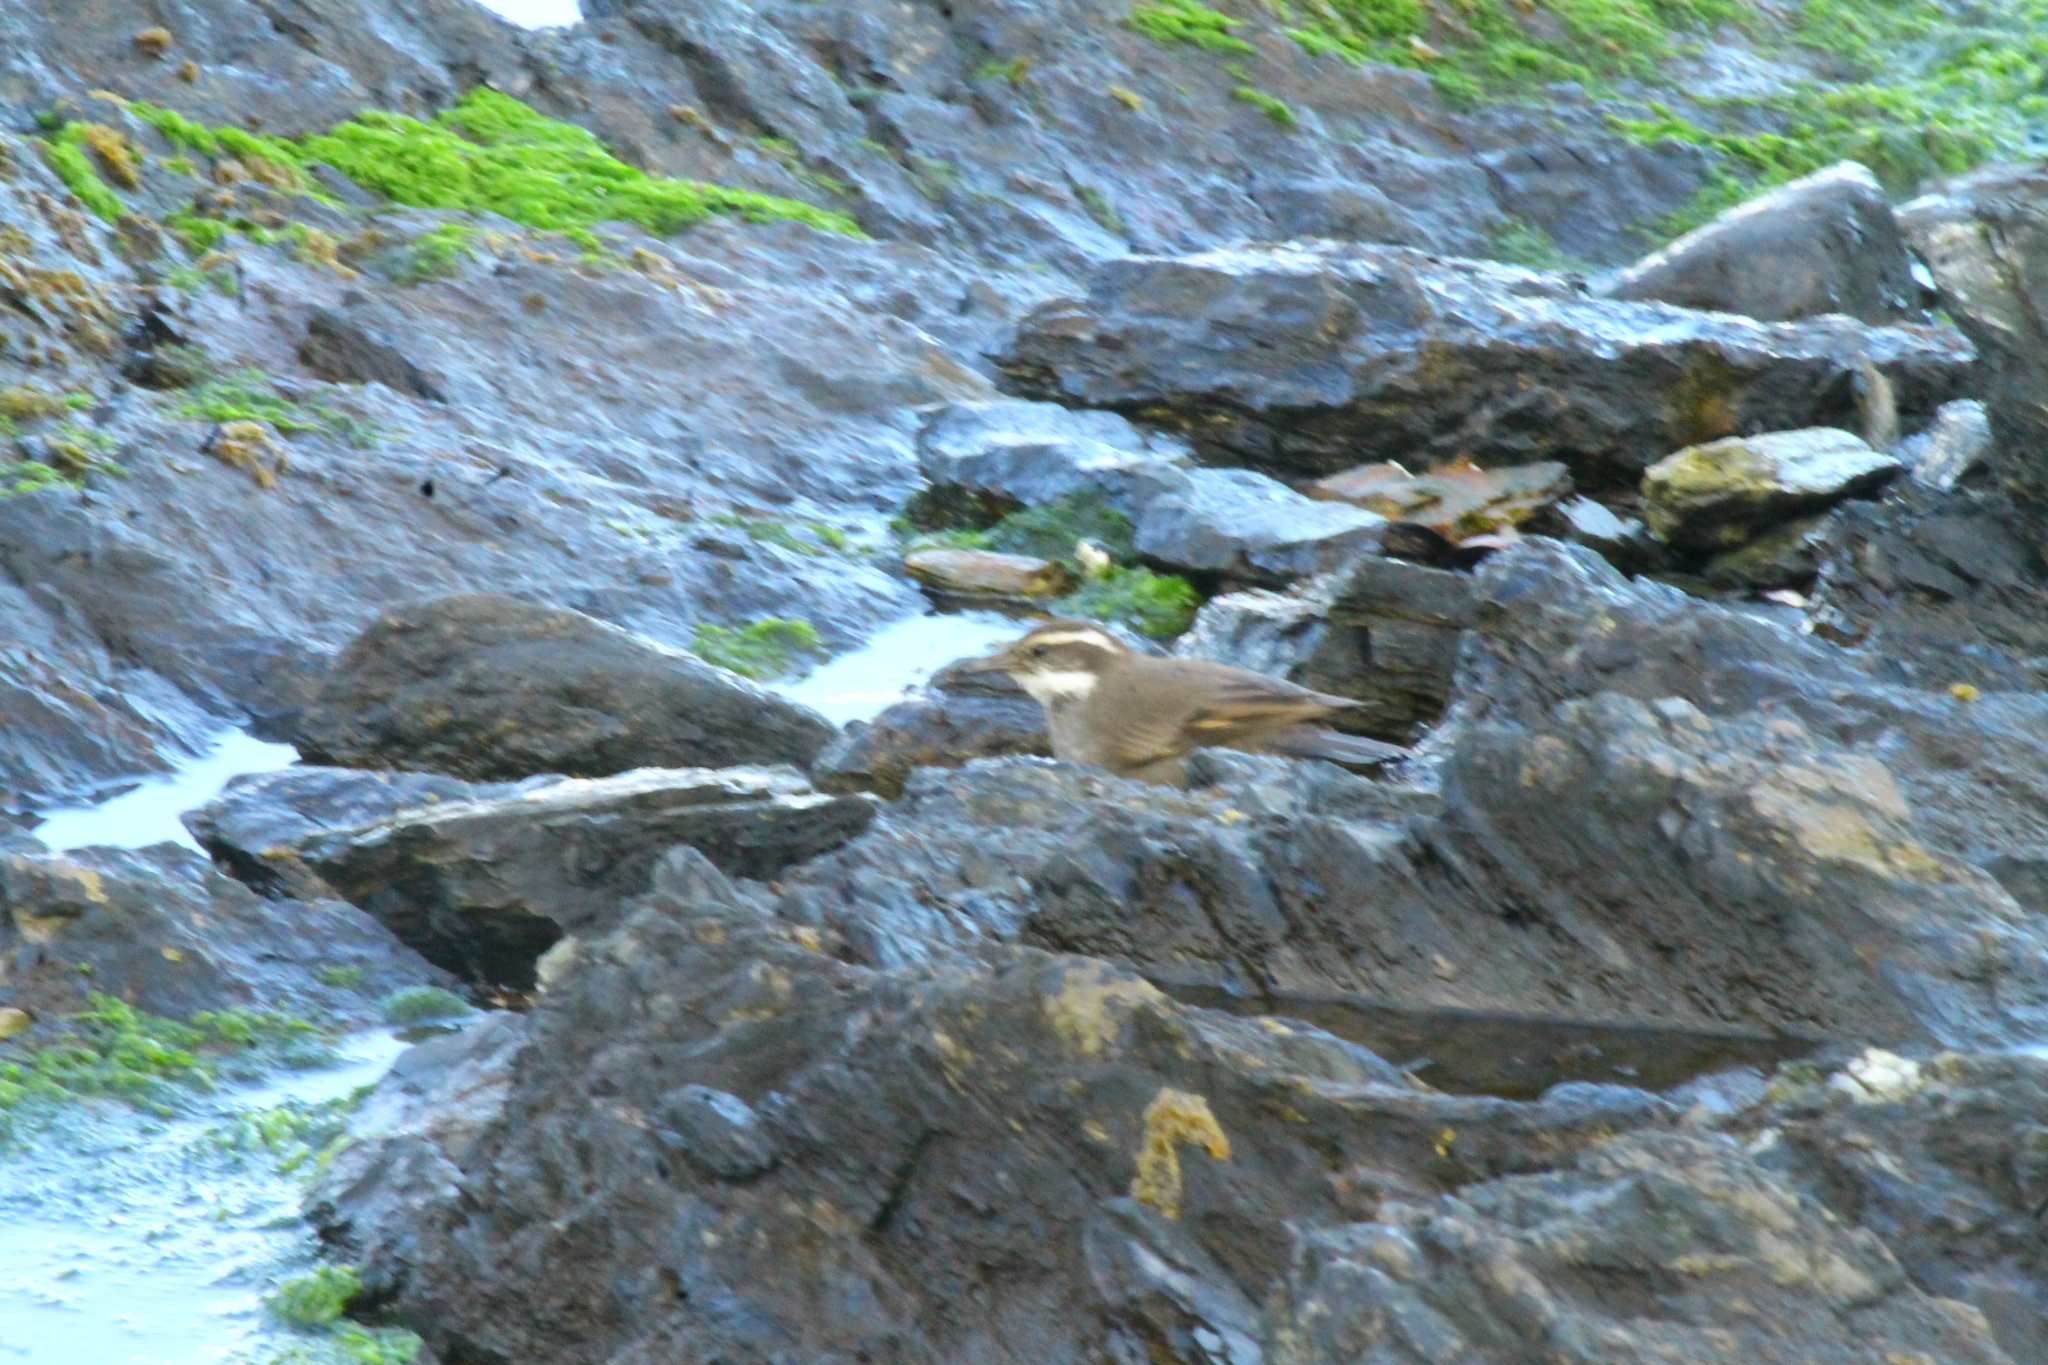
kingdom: Animalia
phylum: Chordata
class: Aves
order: Passeriformes
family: Furnariidae
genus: Cinclodes
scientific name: Cinclodes patagonicus
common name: Dark-bellied cinclodes
